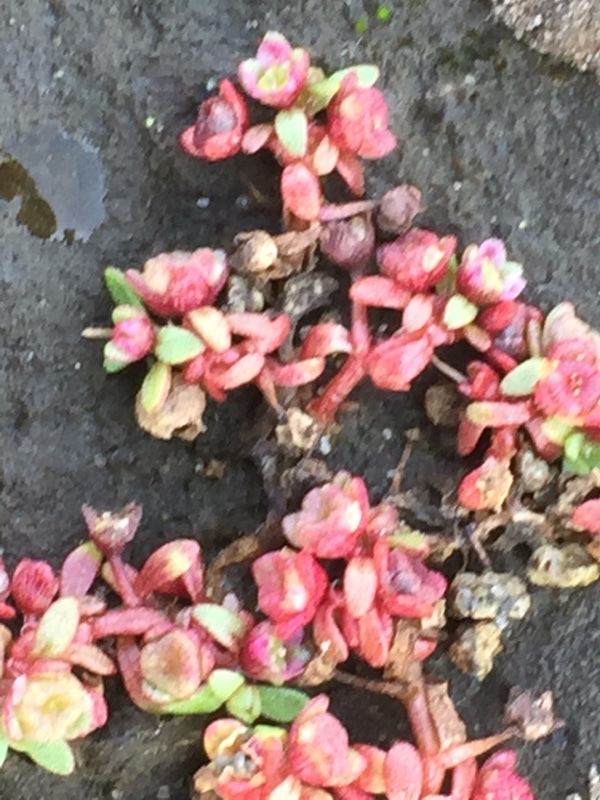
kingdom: Plantae
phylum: Tracheophyta
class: Magnoliopsida
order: Malpighiales
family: Elatinaceae
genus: Elatine
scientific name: Elatine hexandra
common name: Six-stamened waterwort
